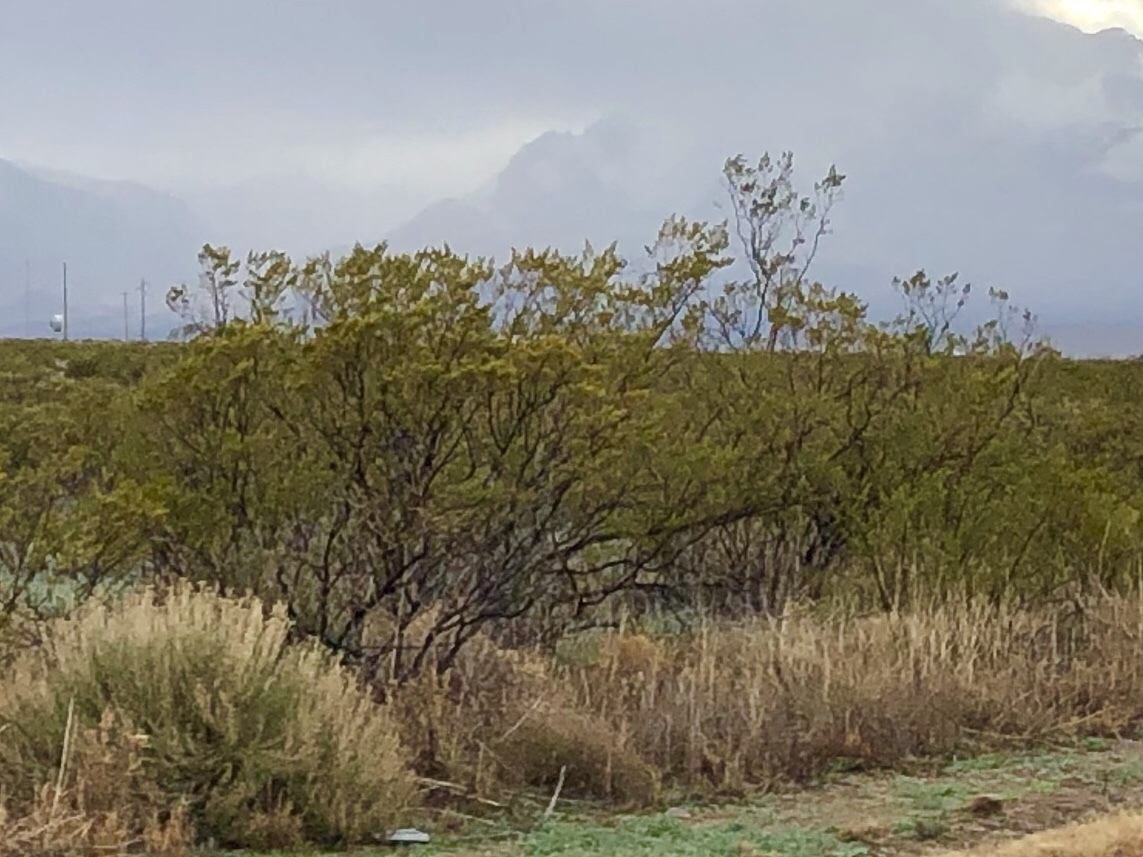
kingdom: Plantae
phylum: Tracheophyta
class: Magnoliopsida
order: Zygophyllales
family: Zygophyllaceae
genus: Larrea
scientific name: Larrea tridentata
